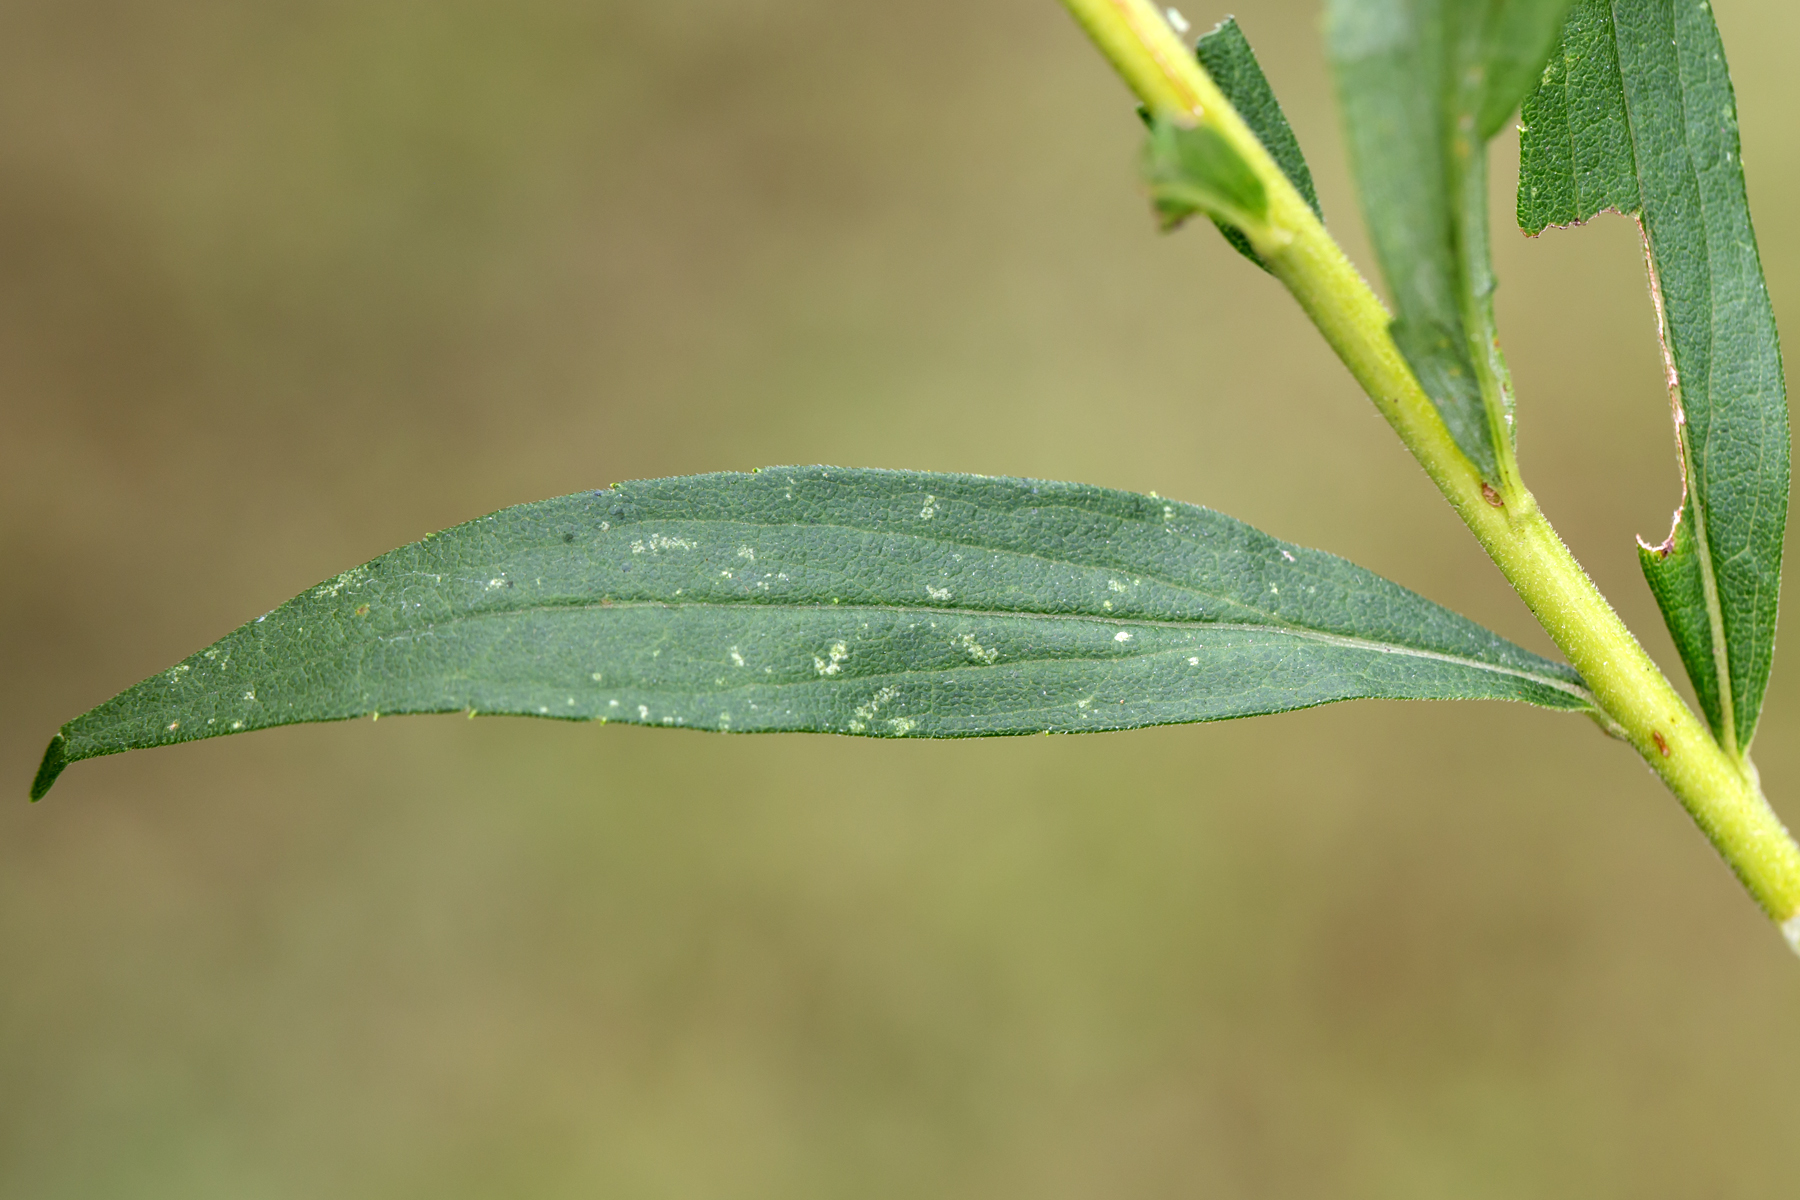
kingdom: Plantae
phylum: Tracheophyta
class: Magnoliopsida
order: Asterales
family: Asteraceae
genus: Solidago
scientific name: Solidago altissima
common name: Late goldenrod
